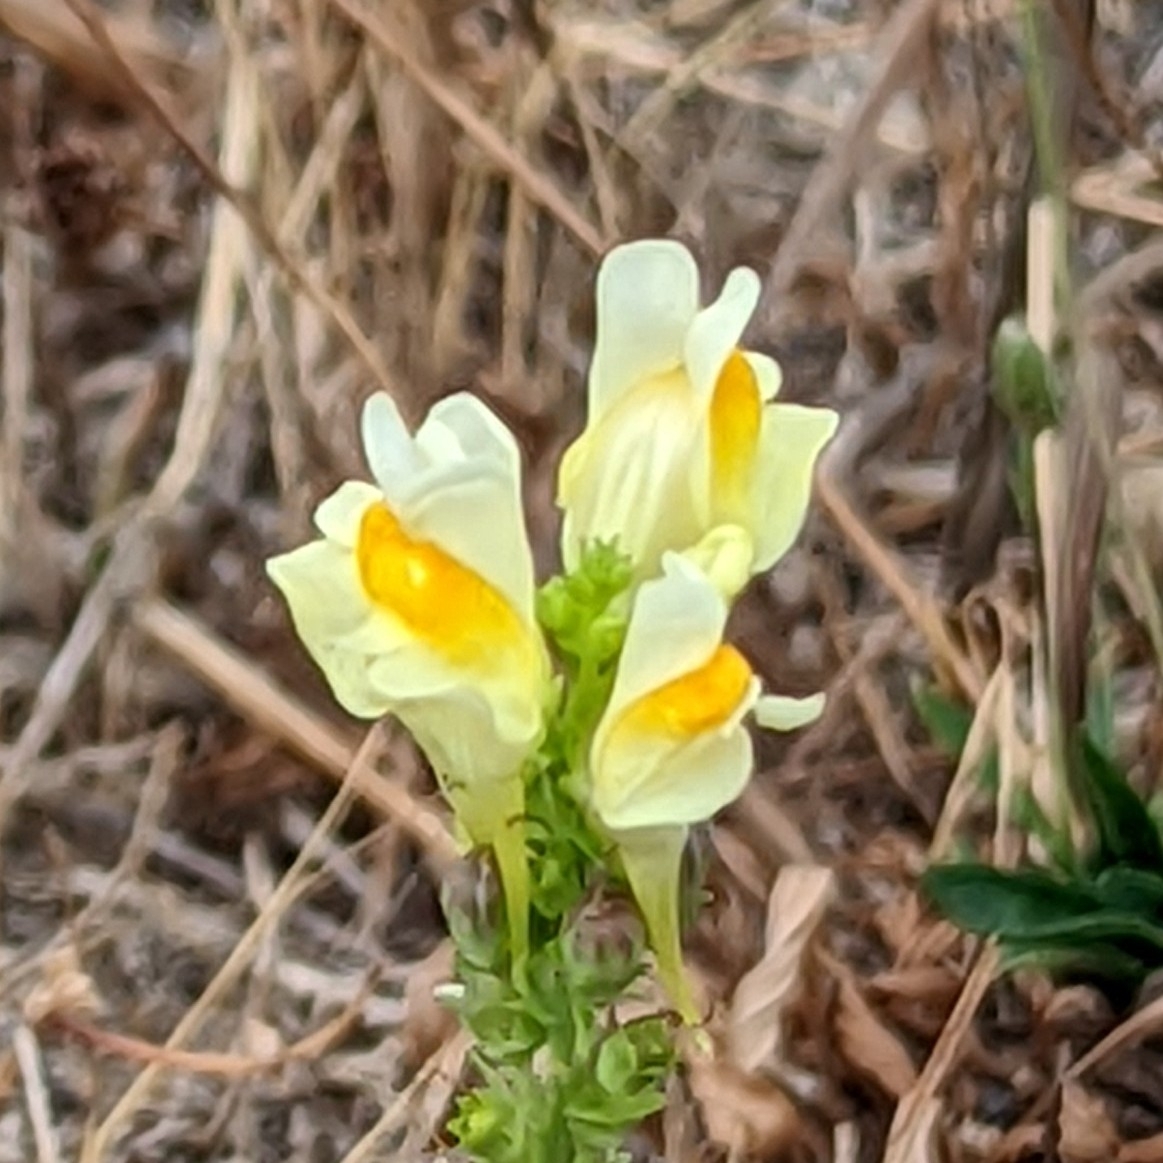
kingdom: Plantae
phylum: Tracheophyta
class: Magnoliopsida
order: Lamiales
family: Plantaginaceae
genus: Linaria
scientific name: Linaria vulgaris
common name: Butter and eggs
